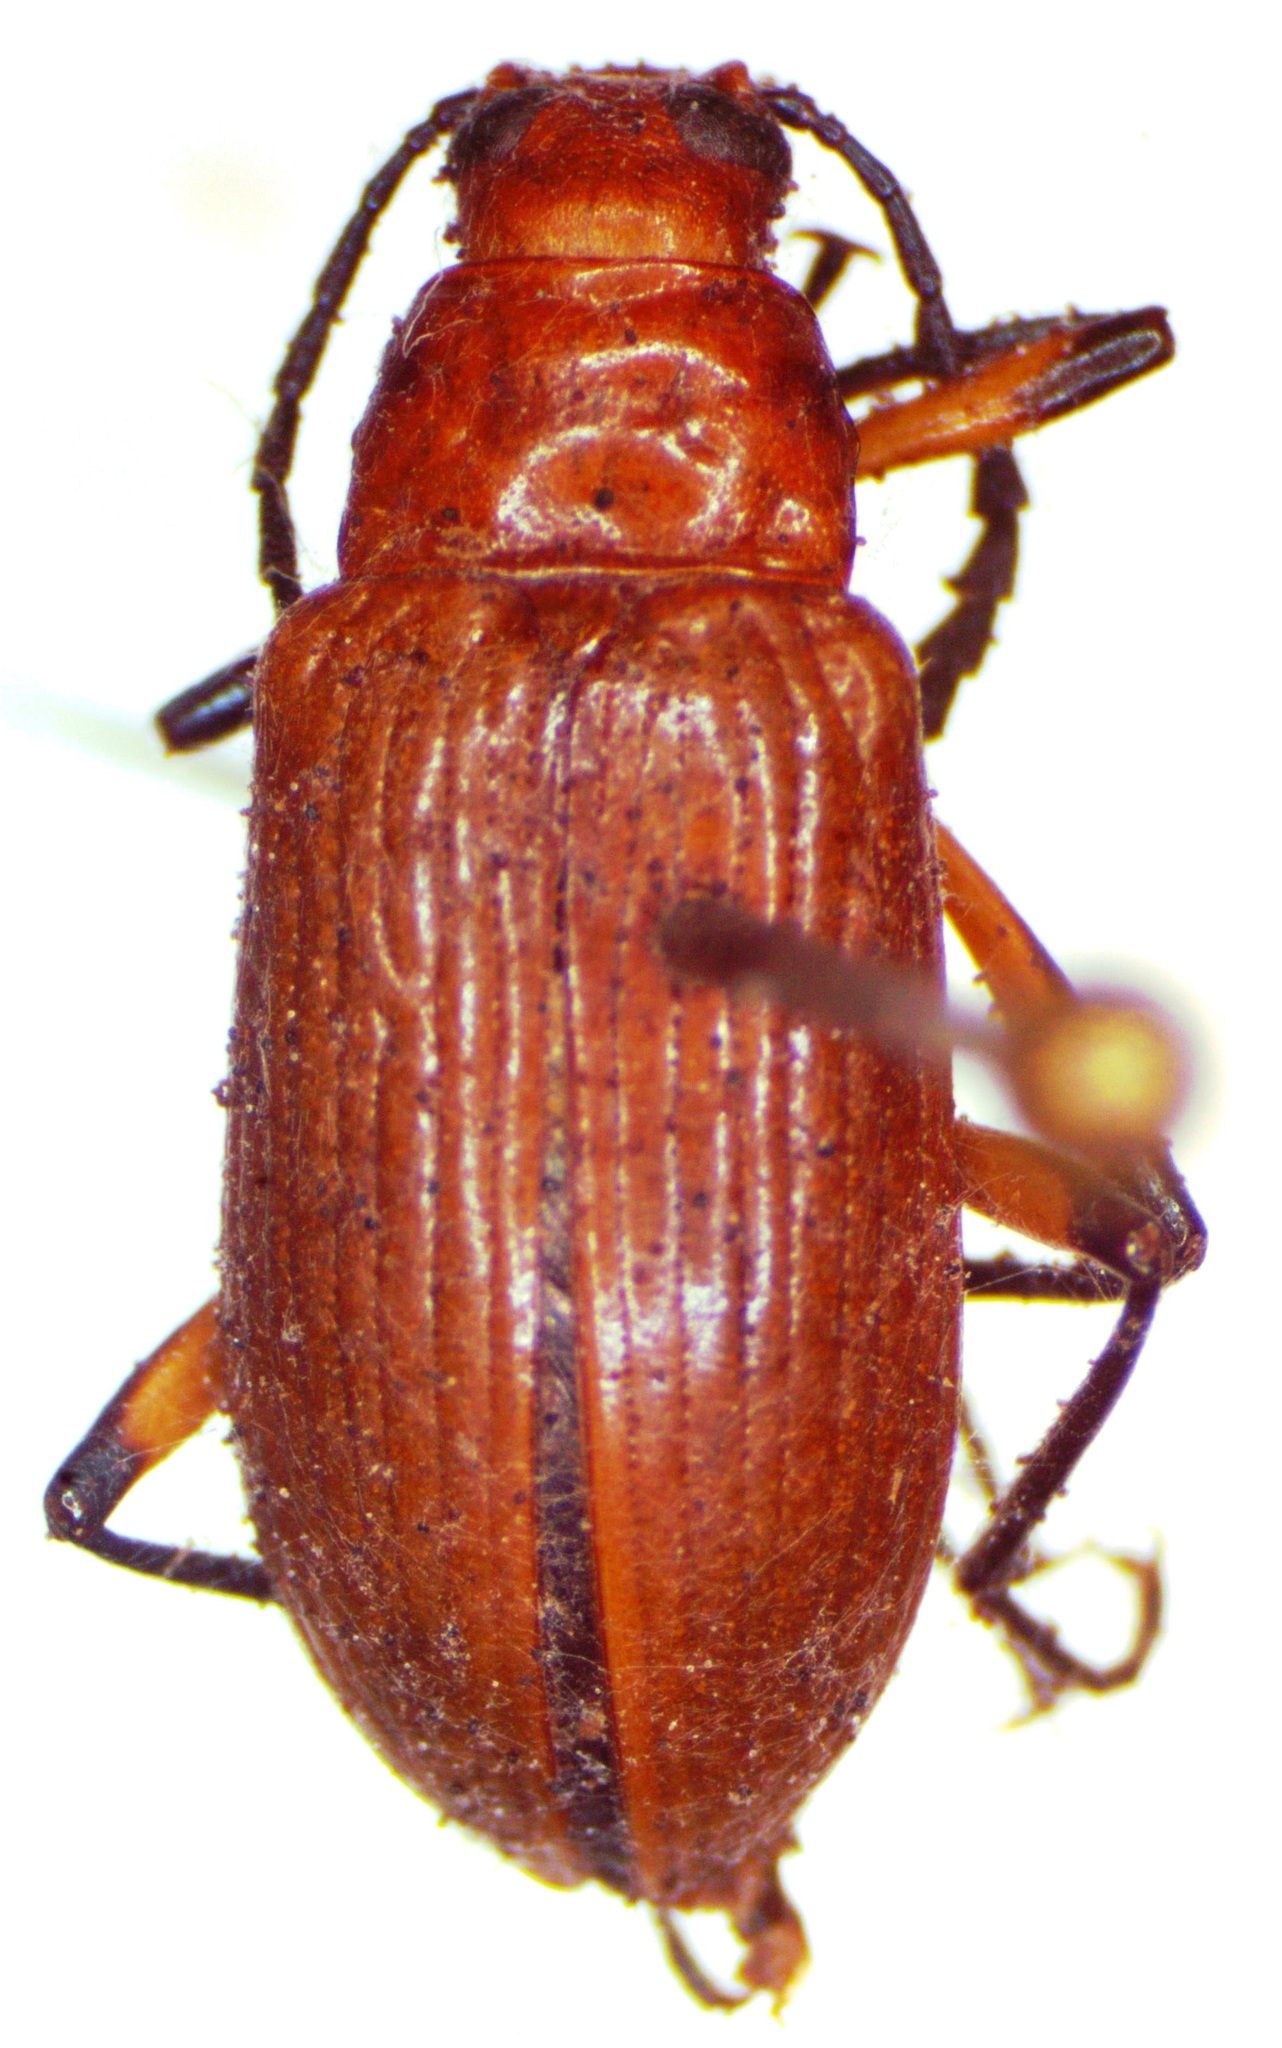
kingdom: Animalia
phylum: Arthropoda
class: Insecta
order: Coleoptera
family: Tenebrionidae
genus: Poecilesthus
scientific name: Poecilesthus variipes
